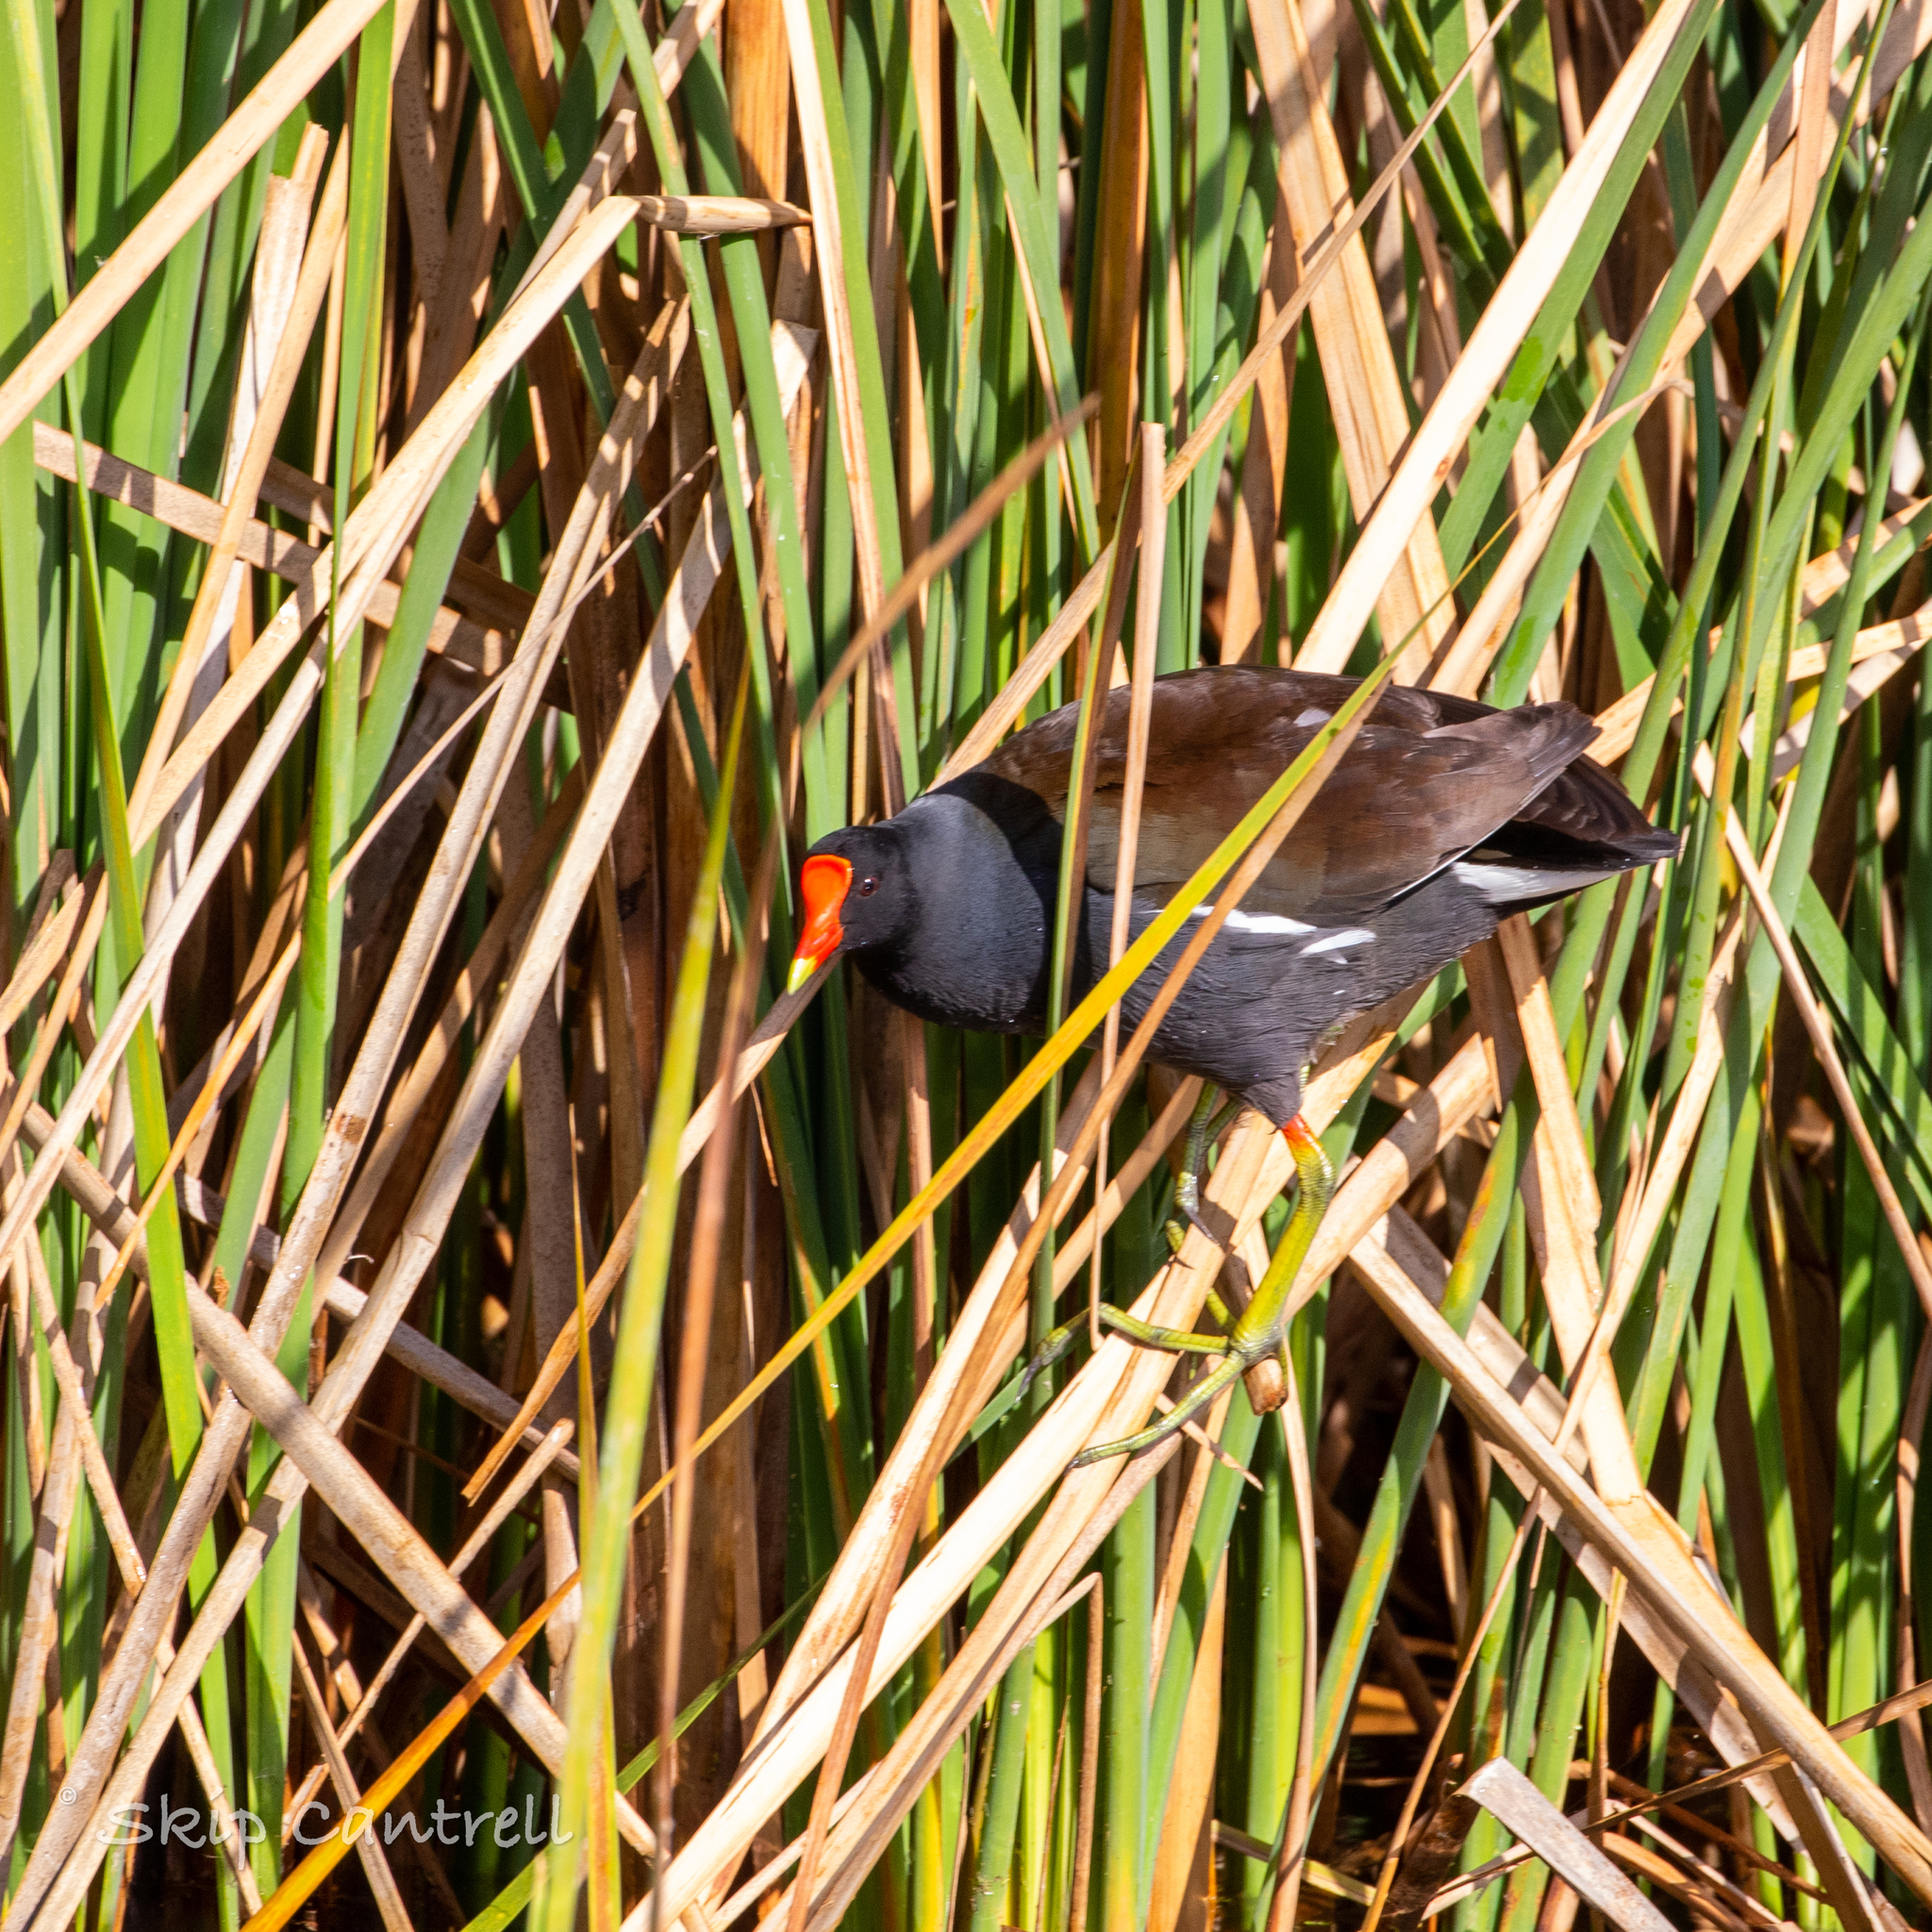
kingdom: Animalia
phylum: Chordata
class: Aves
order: Gruiformes
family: Rallidae
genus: Gallinula
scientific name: Gallinula chloropus
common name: Common moorhen
